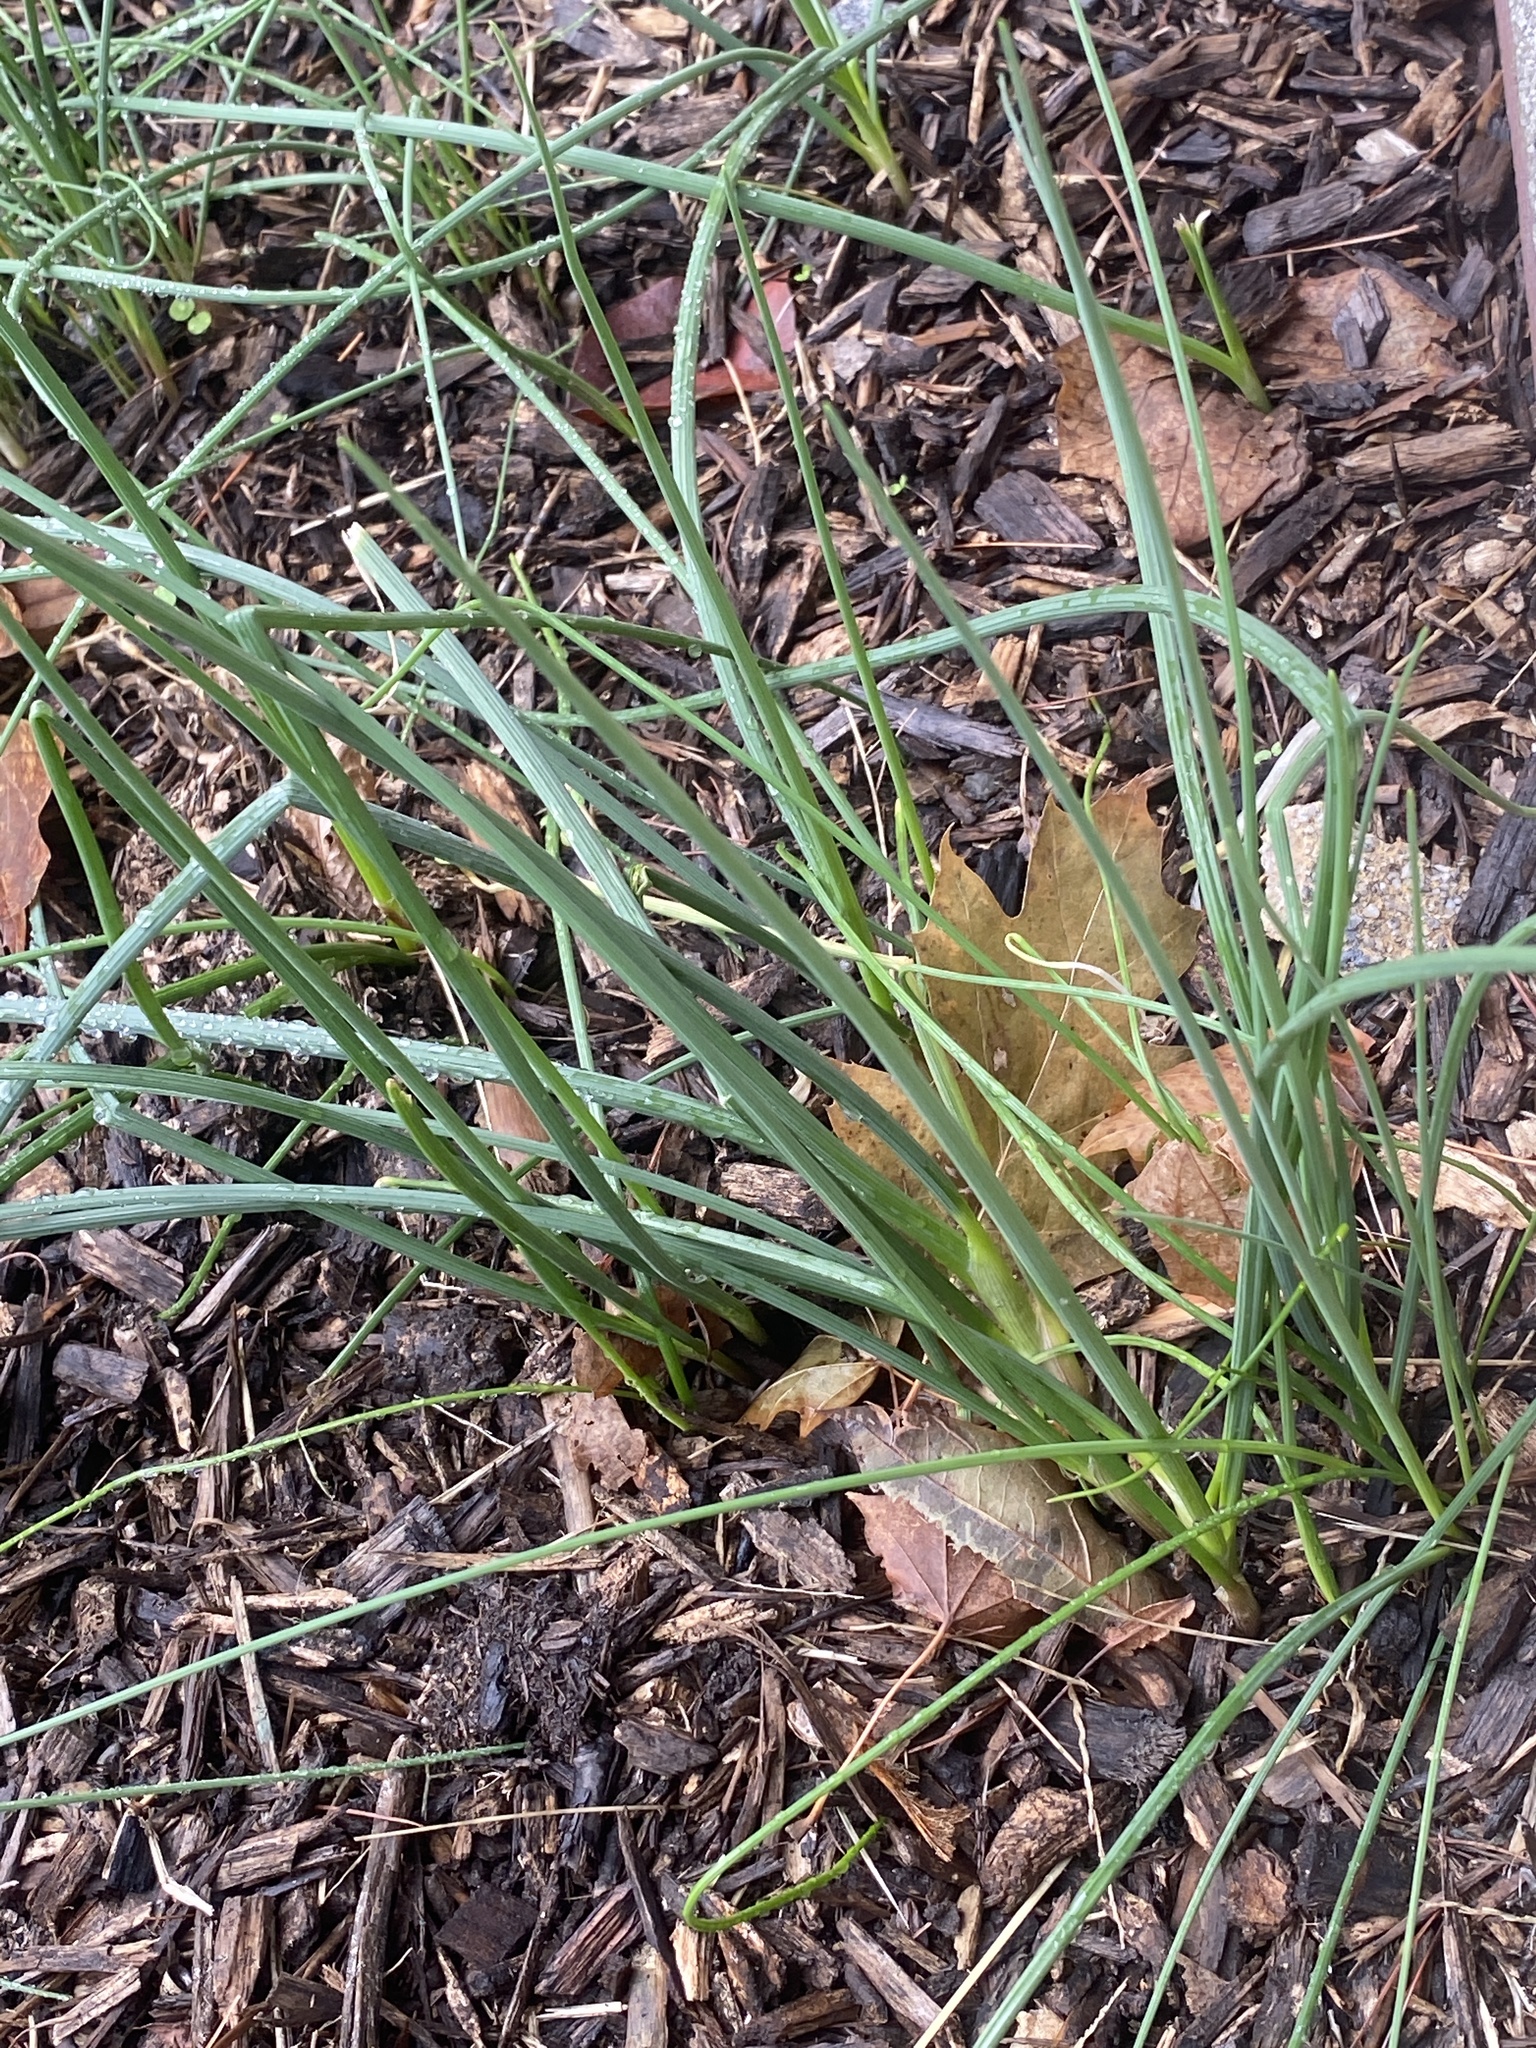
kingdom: Plantae
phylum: Tracheophyta
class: Liliopsida
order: Asparagales
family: Amaryllidaceae
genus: Allium
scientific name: Allium vineale
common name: Crow garlic
